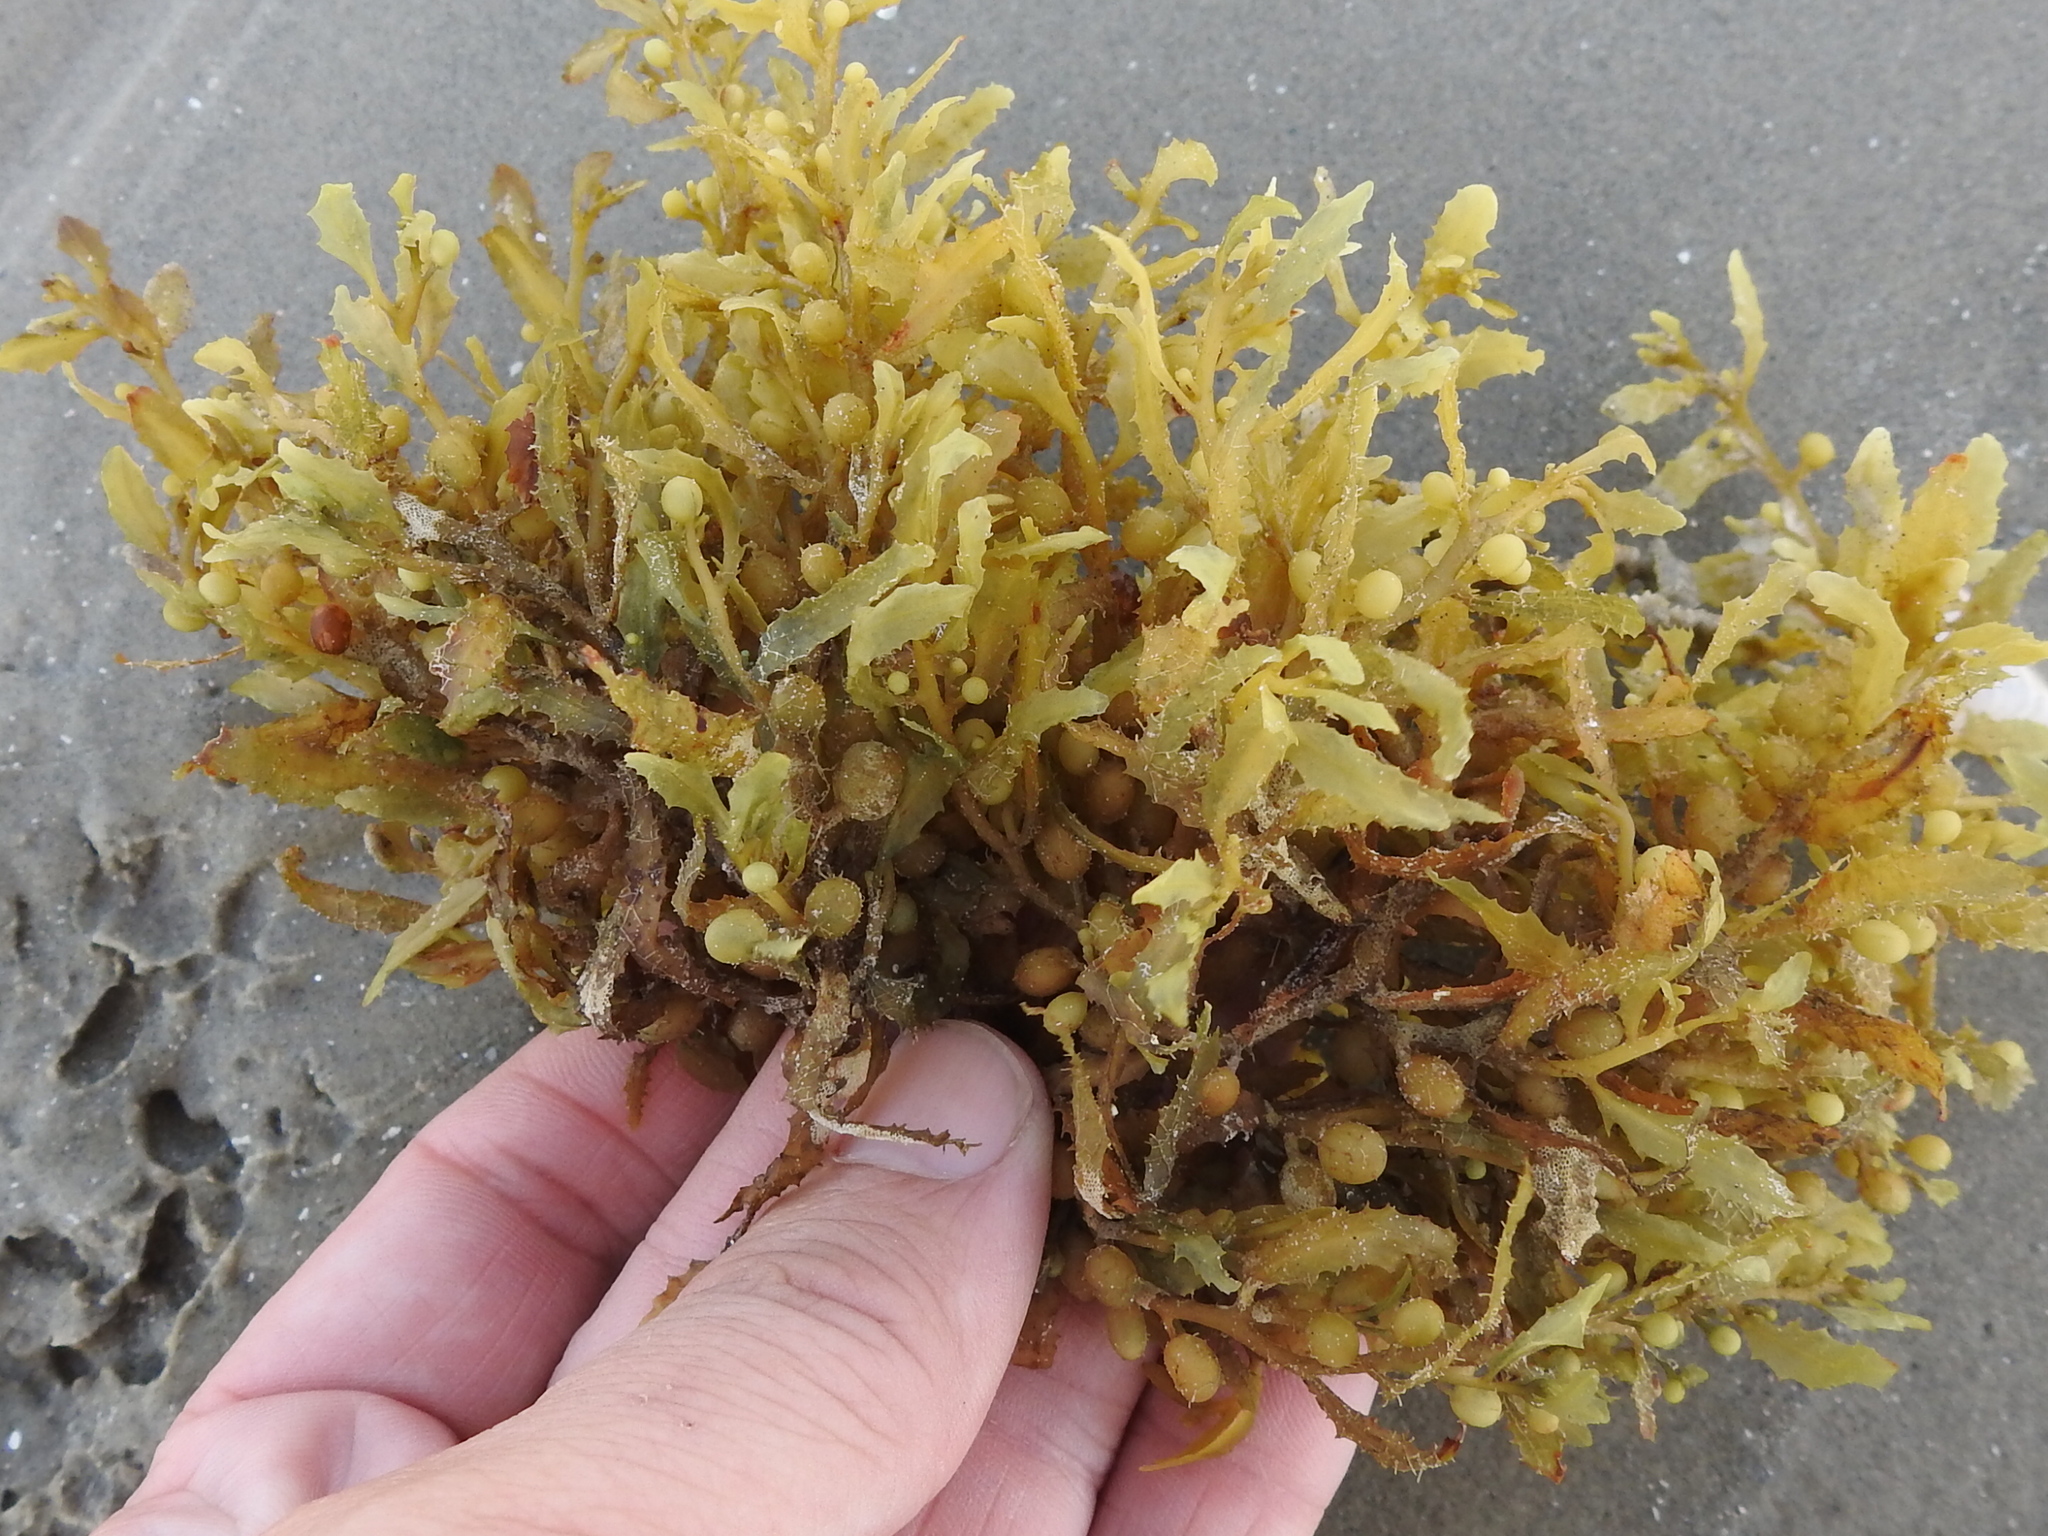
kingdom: Chromista
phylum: Ochrophyta
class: Phaeophyceae
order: Fucales
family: Sargassaceae
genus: Sargassum
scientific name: Sargassum fluitans
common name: Sargassum seaweed
